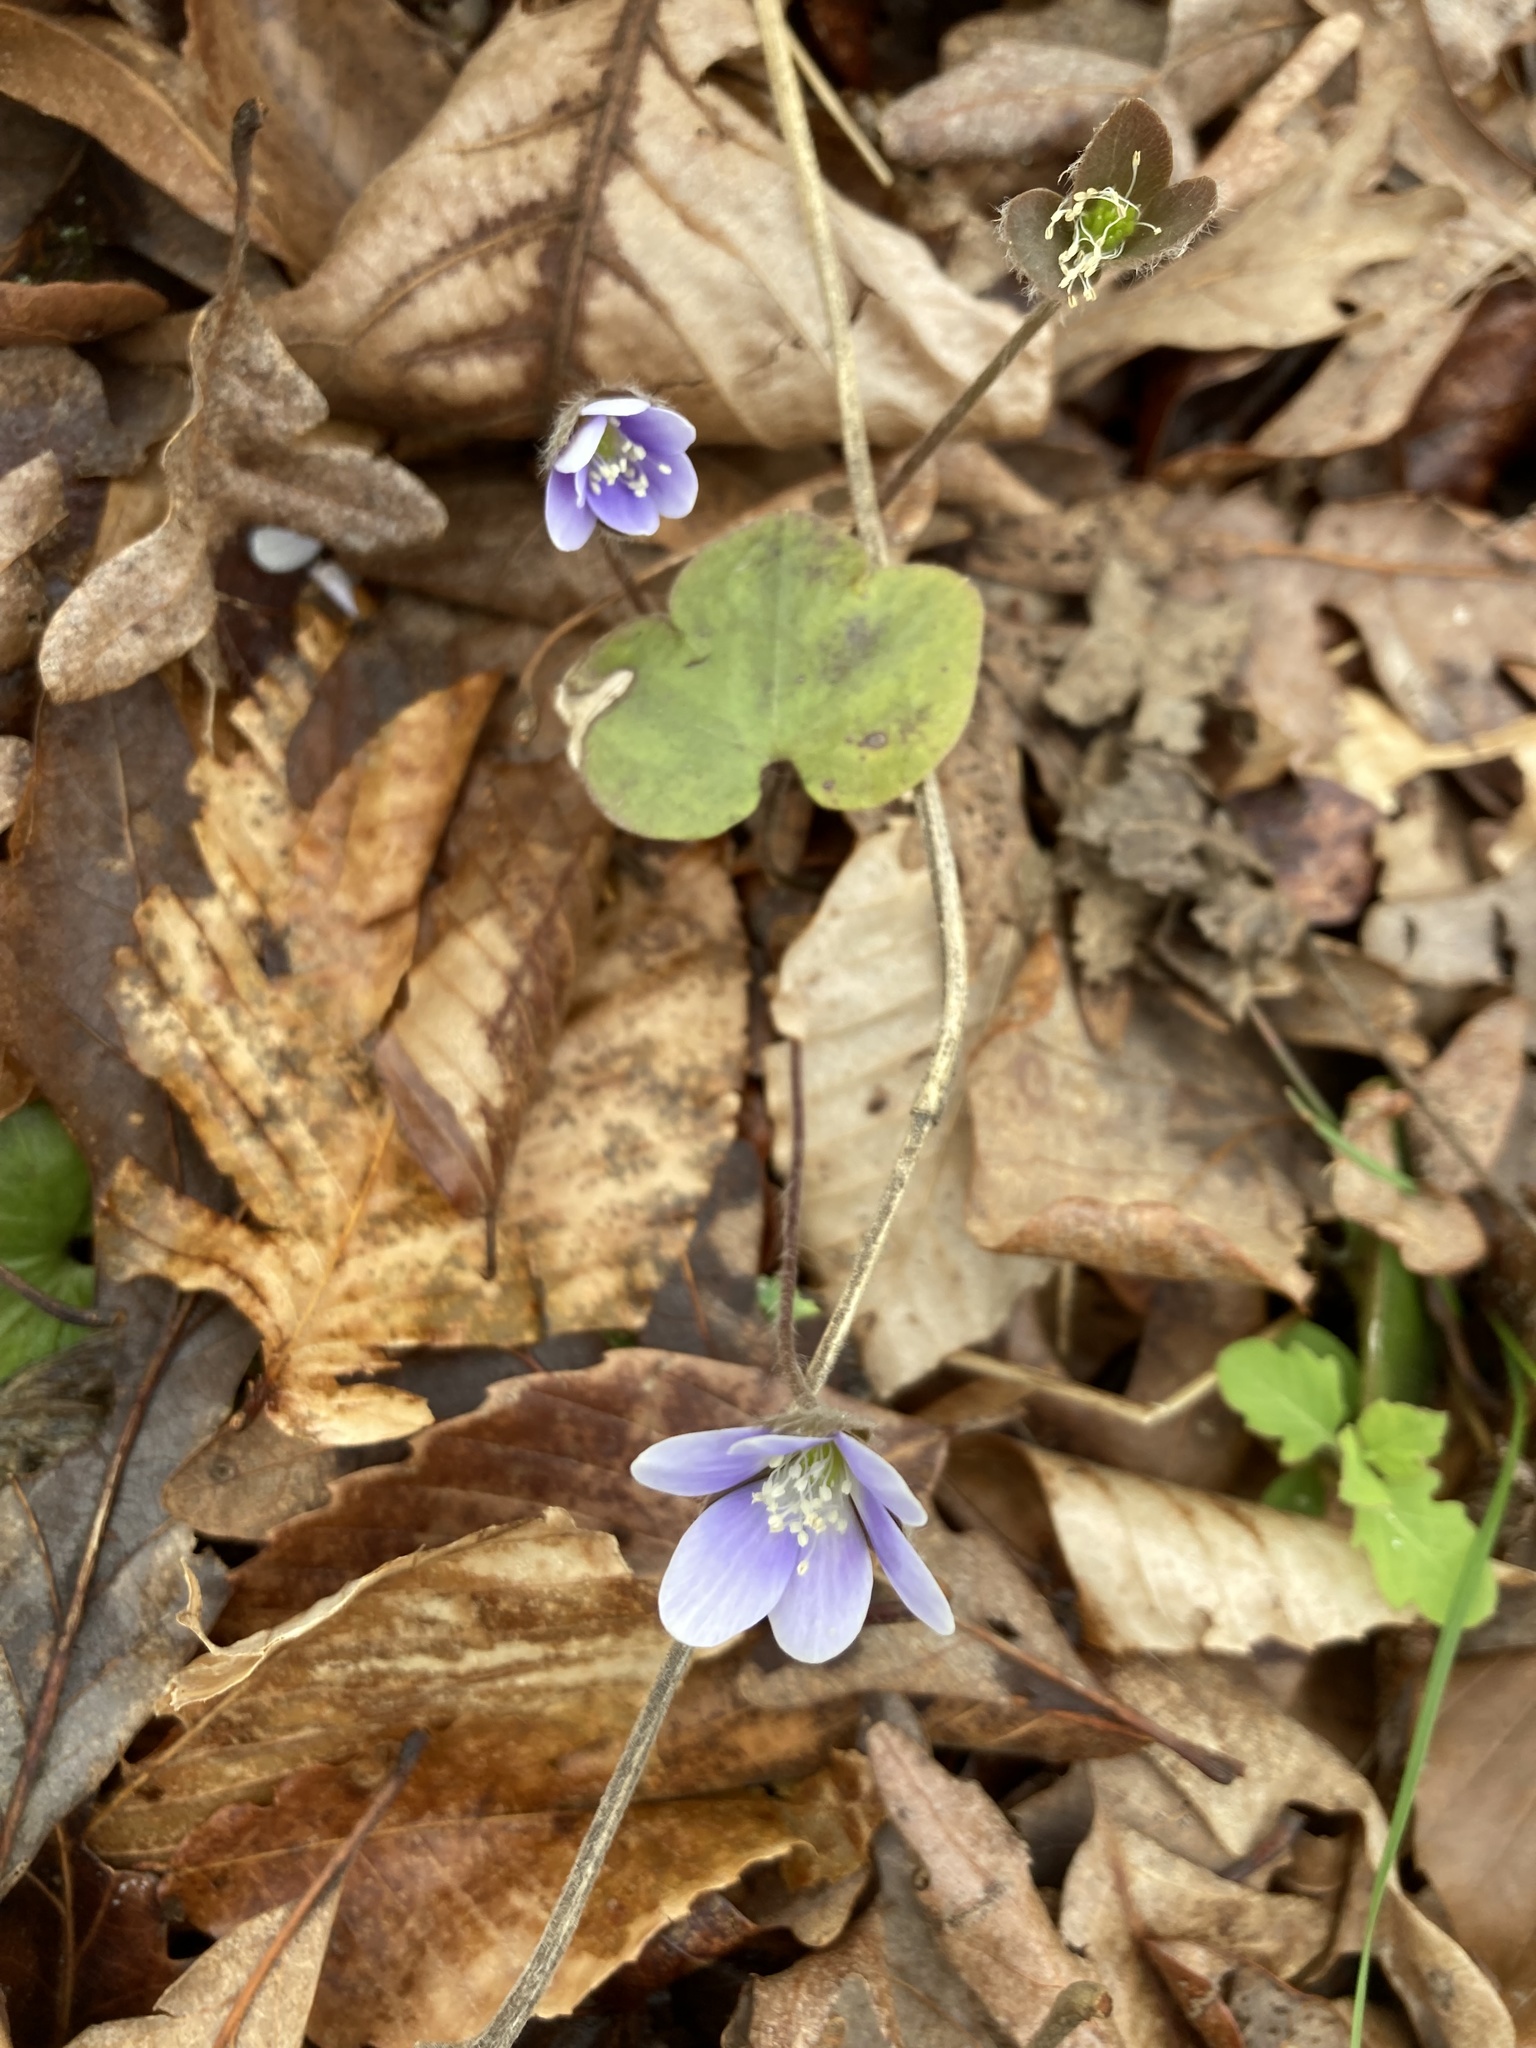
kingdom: Plantae
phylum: Tracheophyta
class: Magnoliopsida
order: Ranunculales
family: Ranunculaceae
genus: Hepatica
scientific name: Hepatica americana
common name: American hepatica
